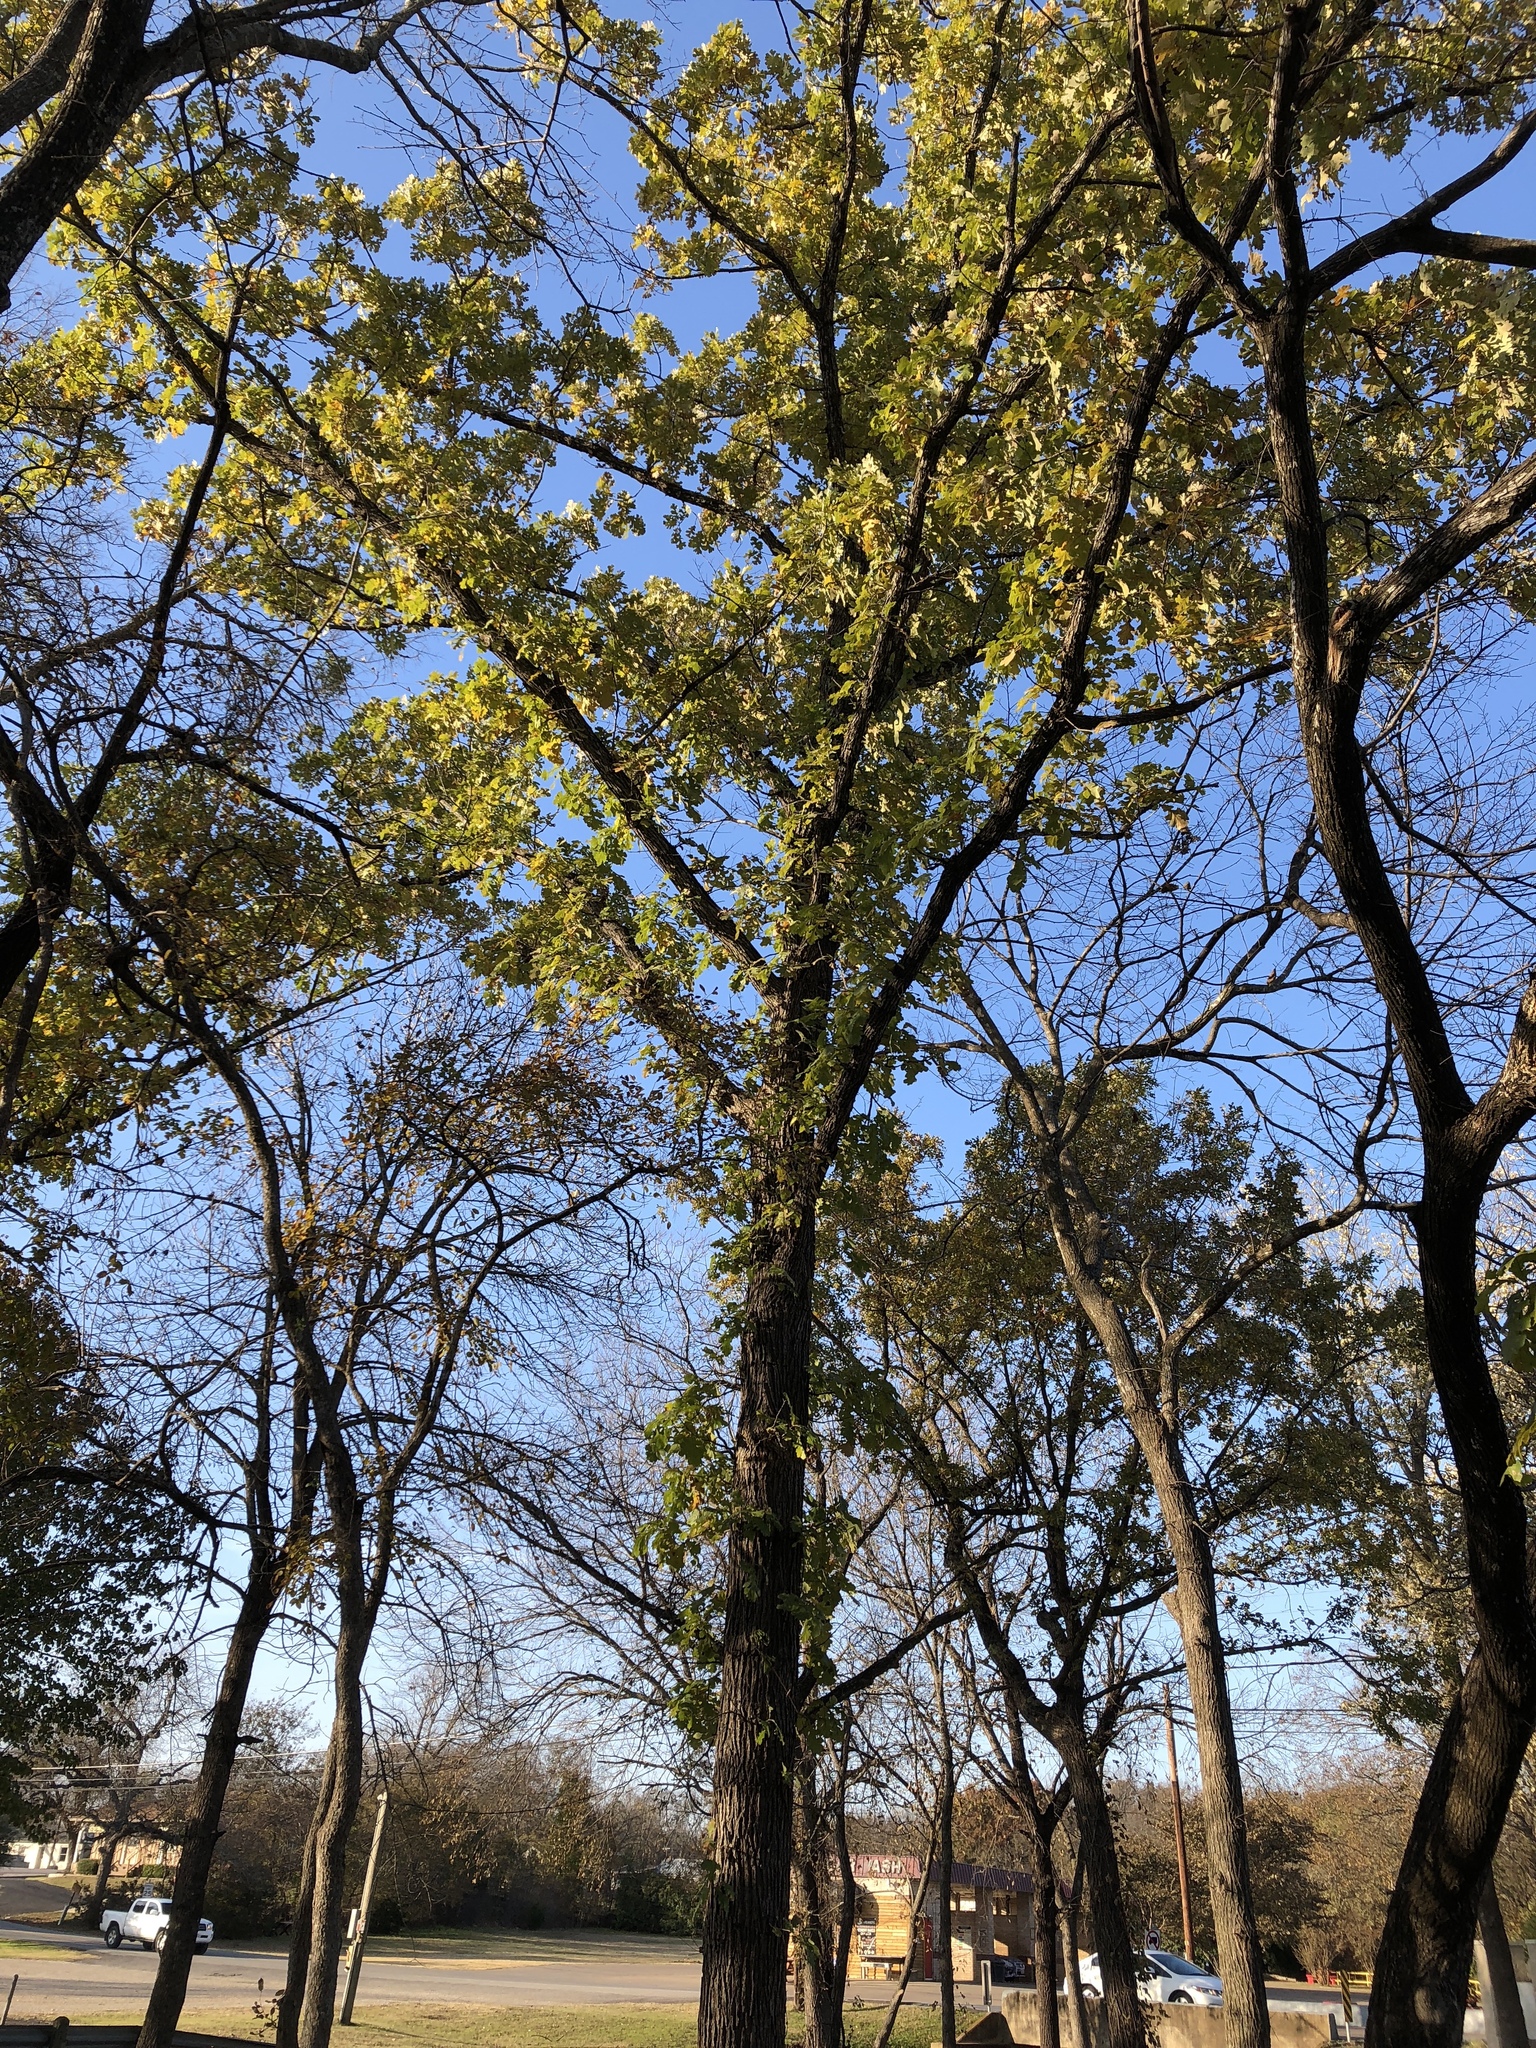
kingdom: Plantae
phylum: Tracheophyta
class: Magnoliopsida
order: Fagales
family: Fagaceae
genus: Quercus
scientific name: Quercus macrocarpa
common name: Bur oak
